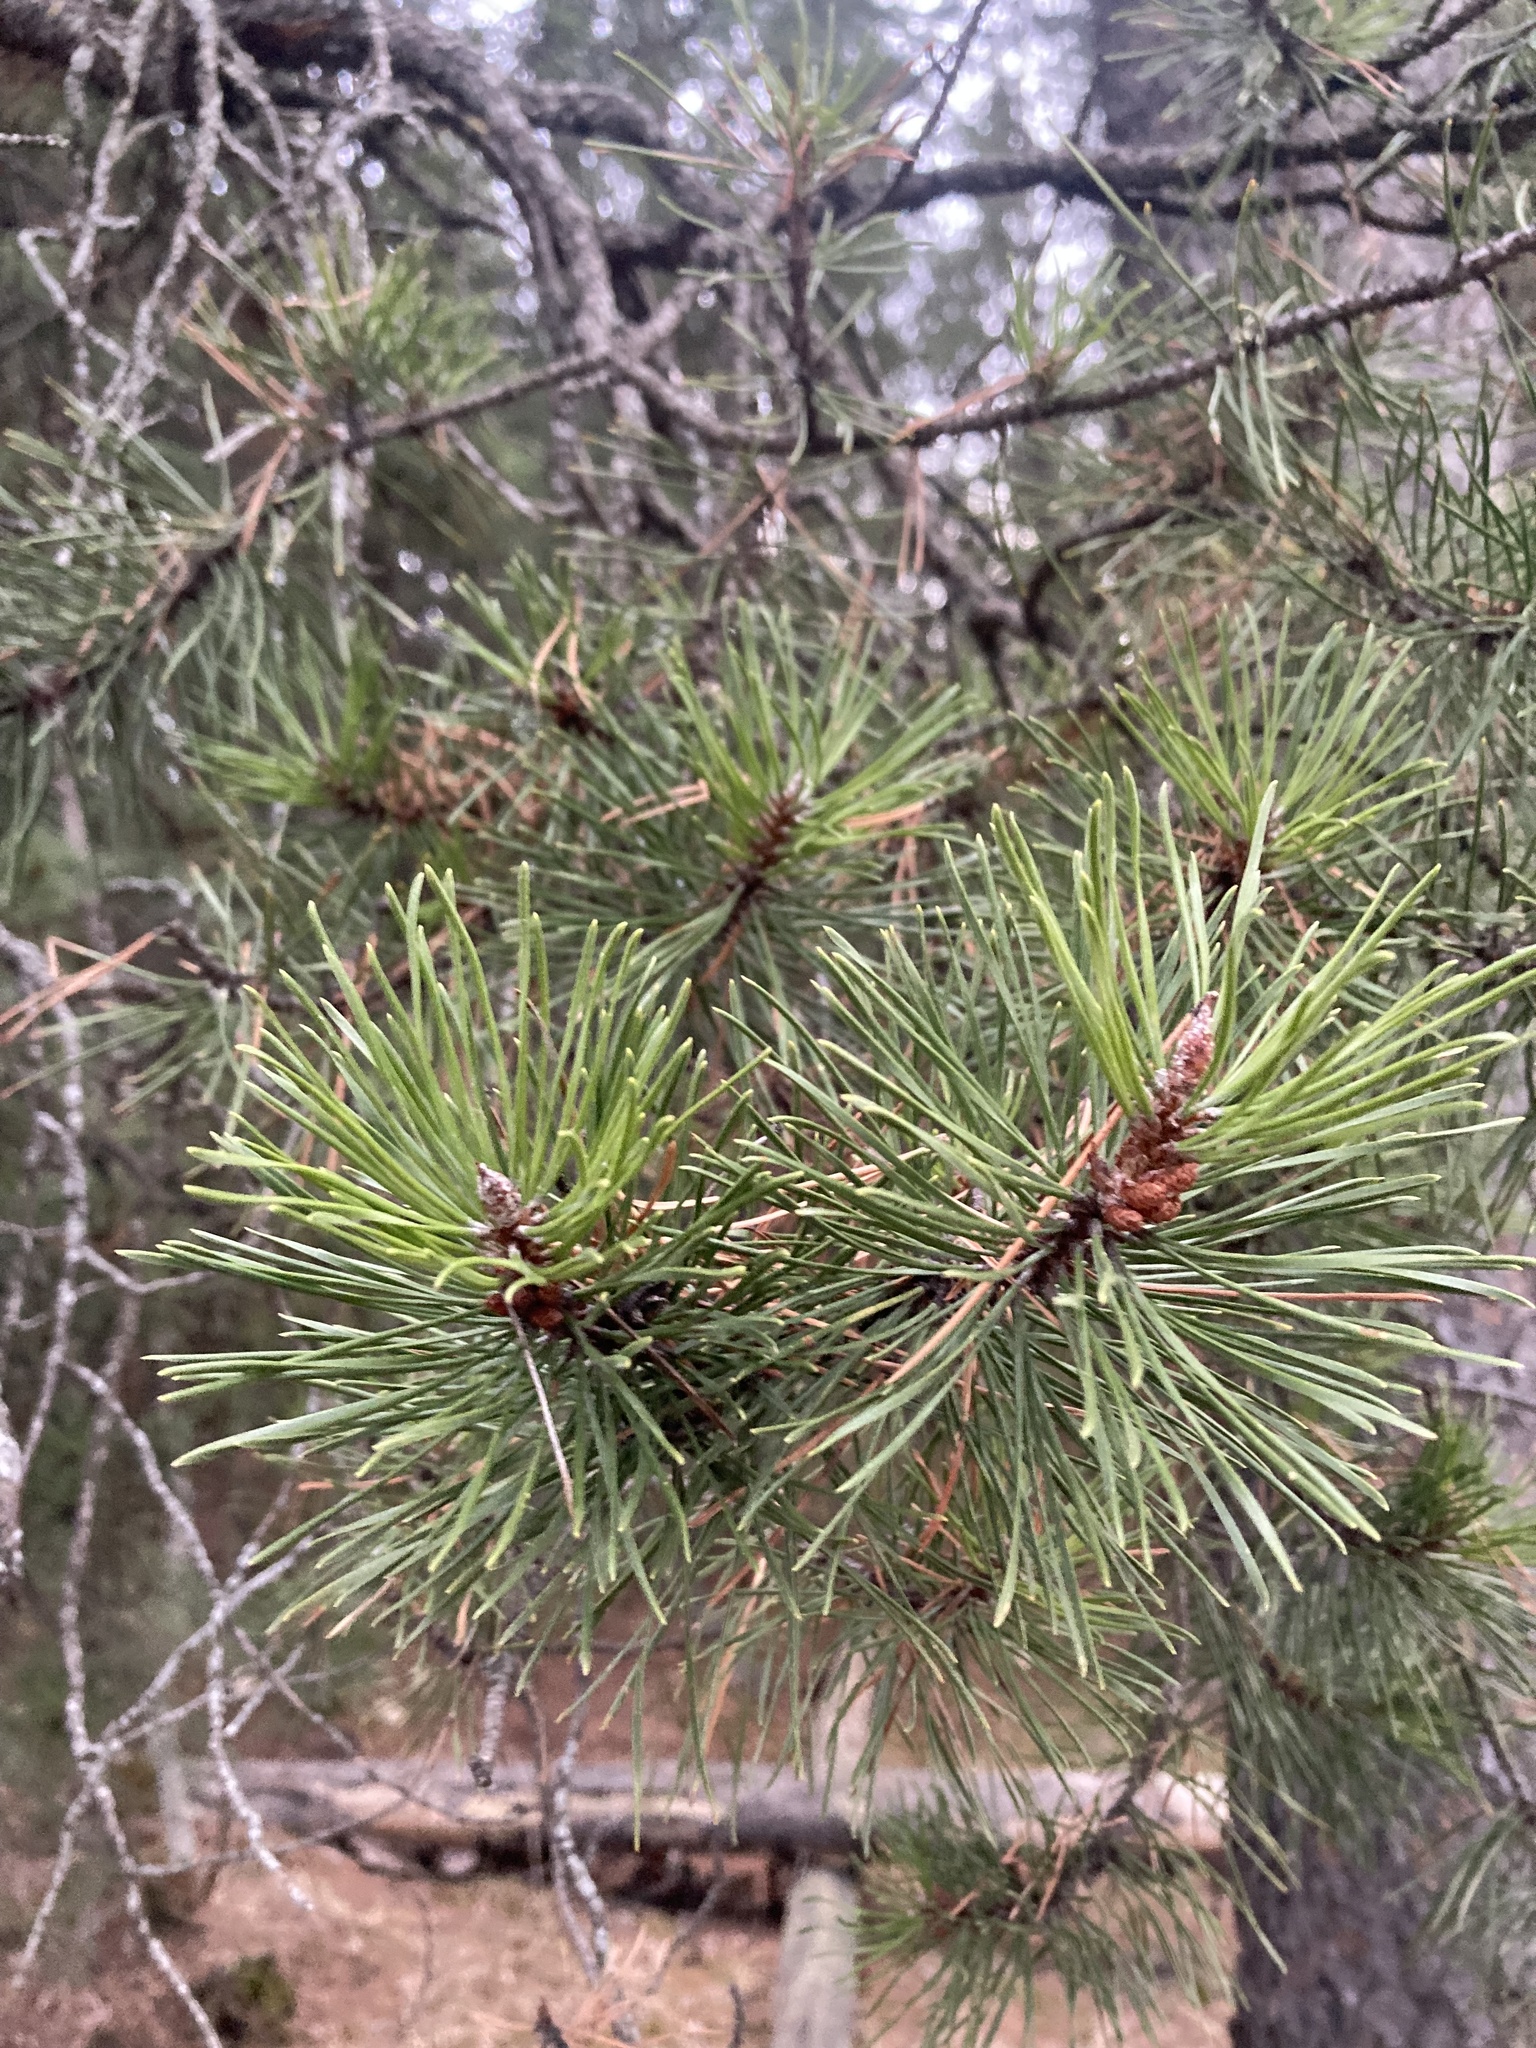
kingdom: Plantae
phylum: Tracheophyta
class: Pinopsida
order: Pinales
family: Pinaceae
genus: Pinus
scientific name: Pinus contorta
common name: Lodgepole pine
